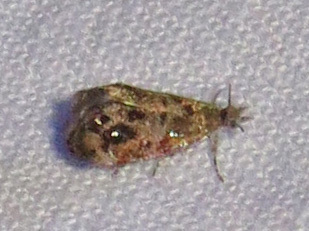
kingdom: Animalia
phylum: Arthropoda
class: Insecta
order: Lepidoptera
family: Choreutidae
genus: Tebenna
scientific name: Tebenna gnaphaliella
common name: Everlasting tebenna moth
